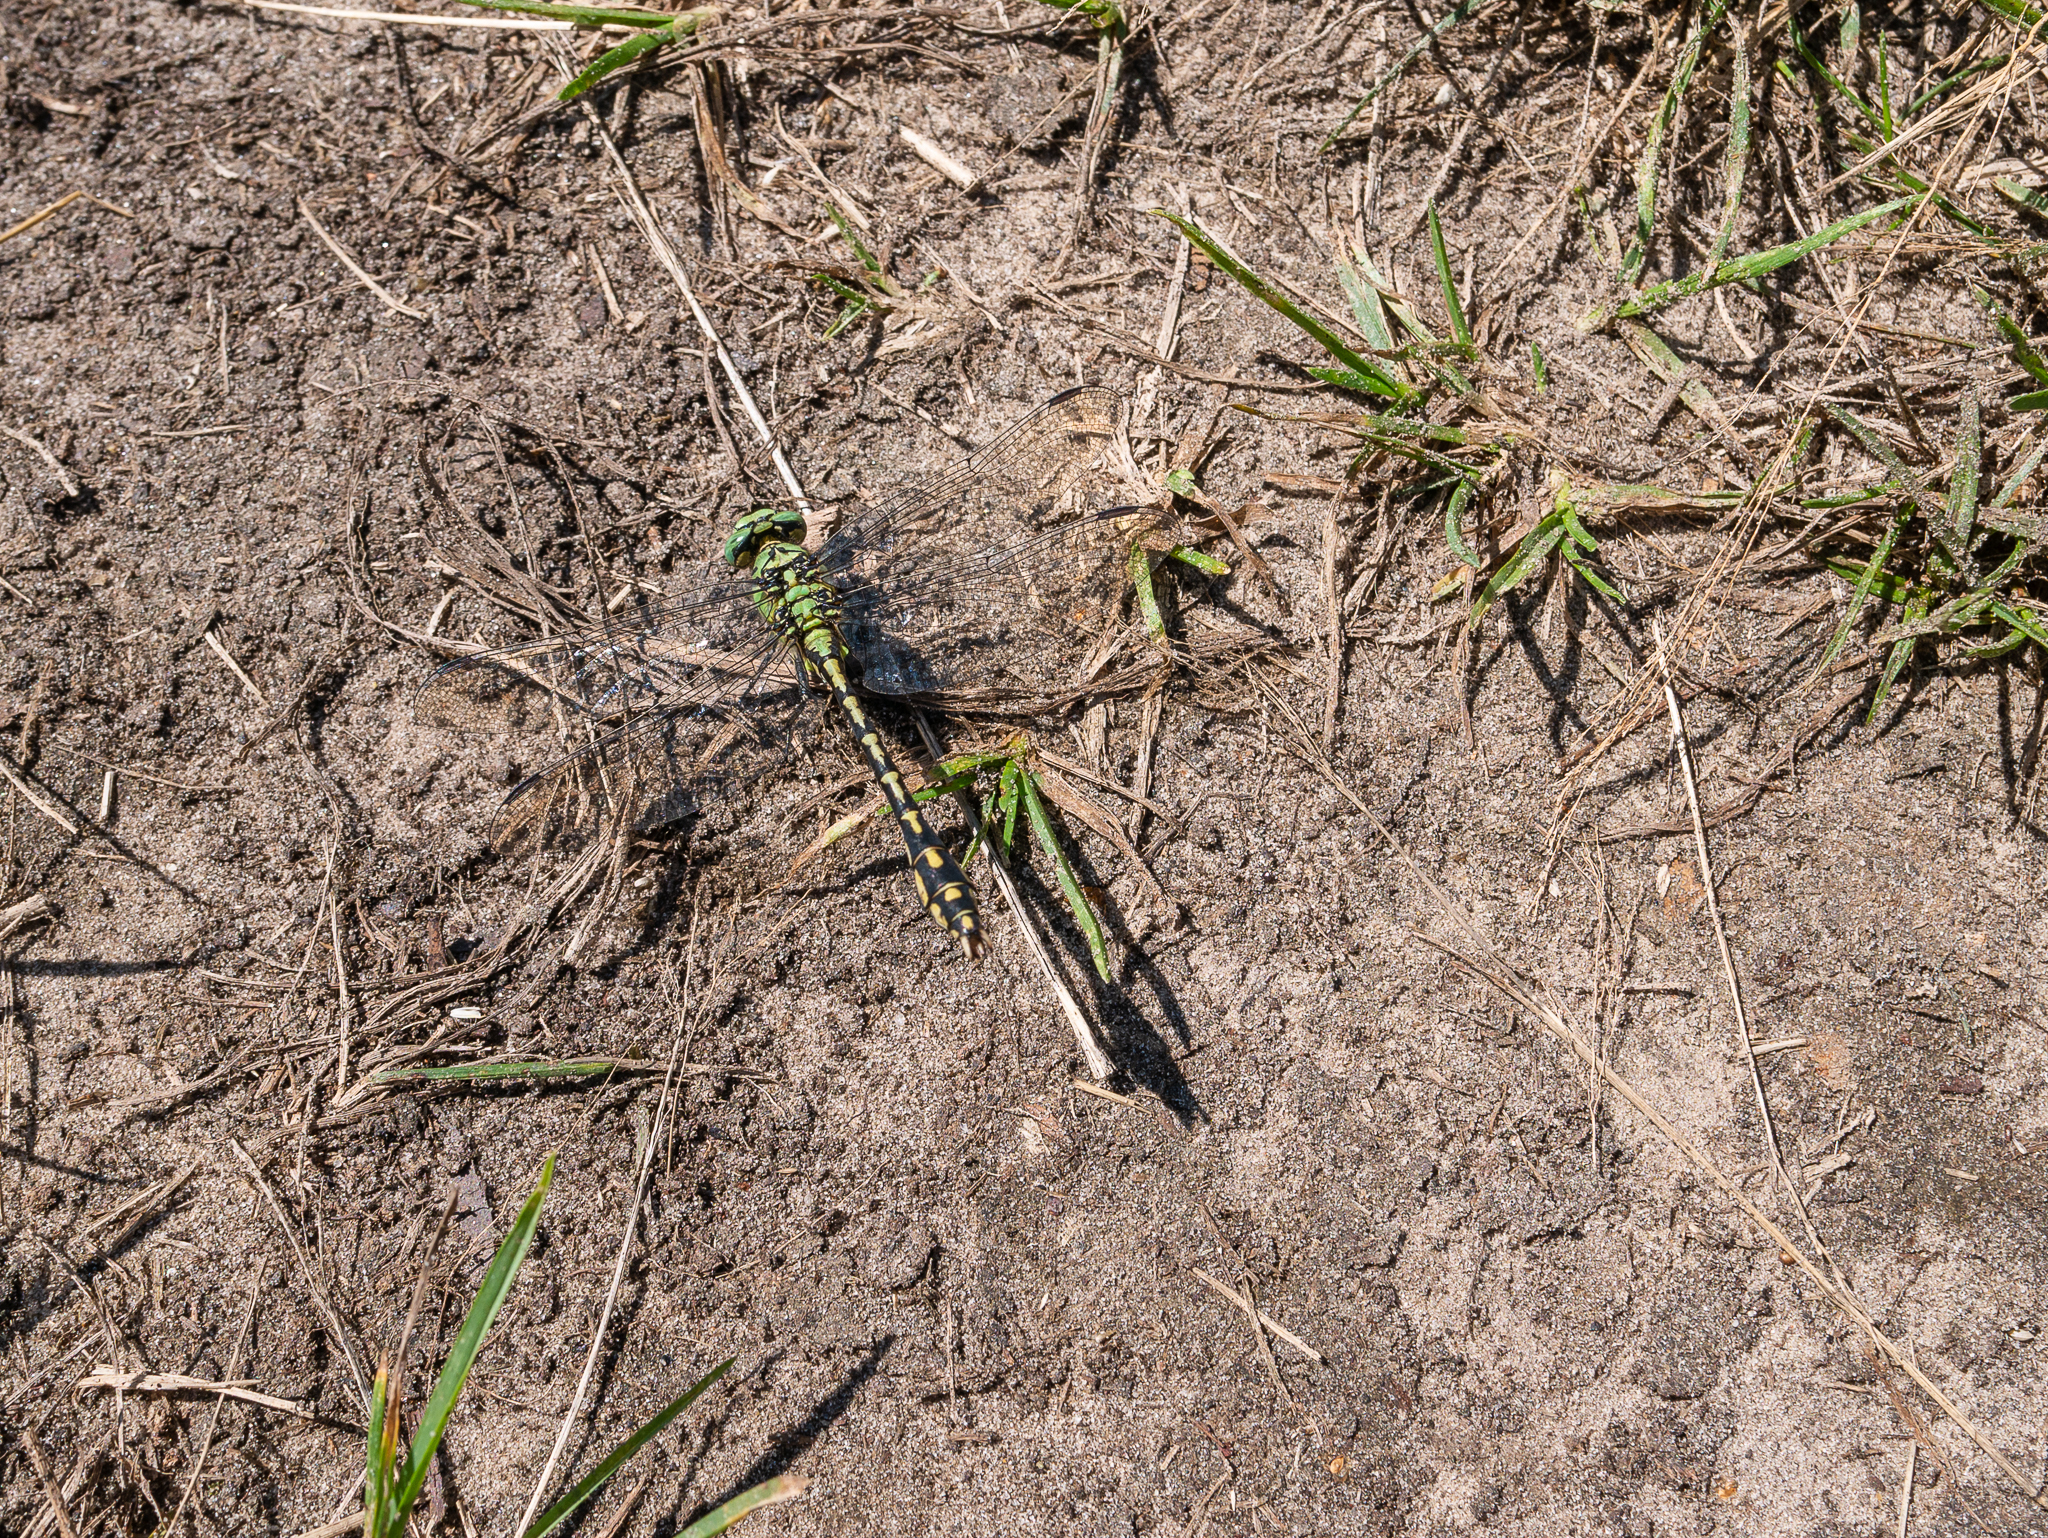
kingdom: Animalia
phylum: Arthropoda
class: Insecta
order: Odonata
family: Gomphidae
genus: Ophiogomphus
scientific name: Ophiogomphus cecilia
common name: Green snaketail
